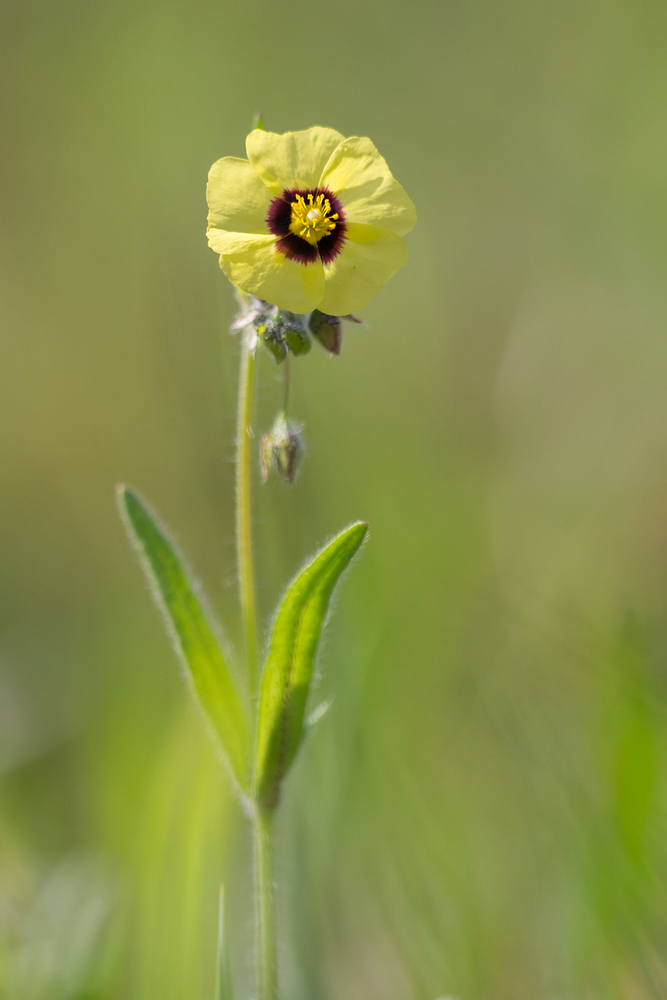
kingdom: Plantae
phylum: Tracheophyta
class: Magnoliopsida
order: Malvales
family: Cistaceae
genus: Tuberaria
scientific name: Tuberaria guttata
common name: Spotted rock-rose
